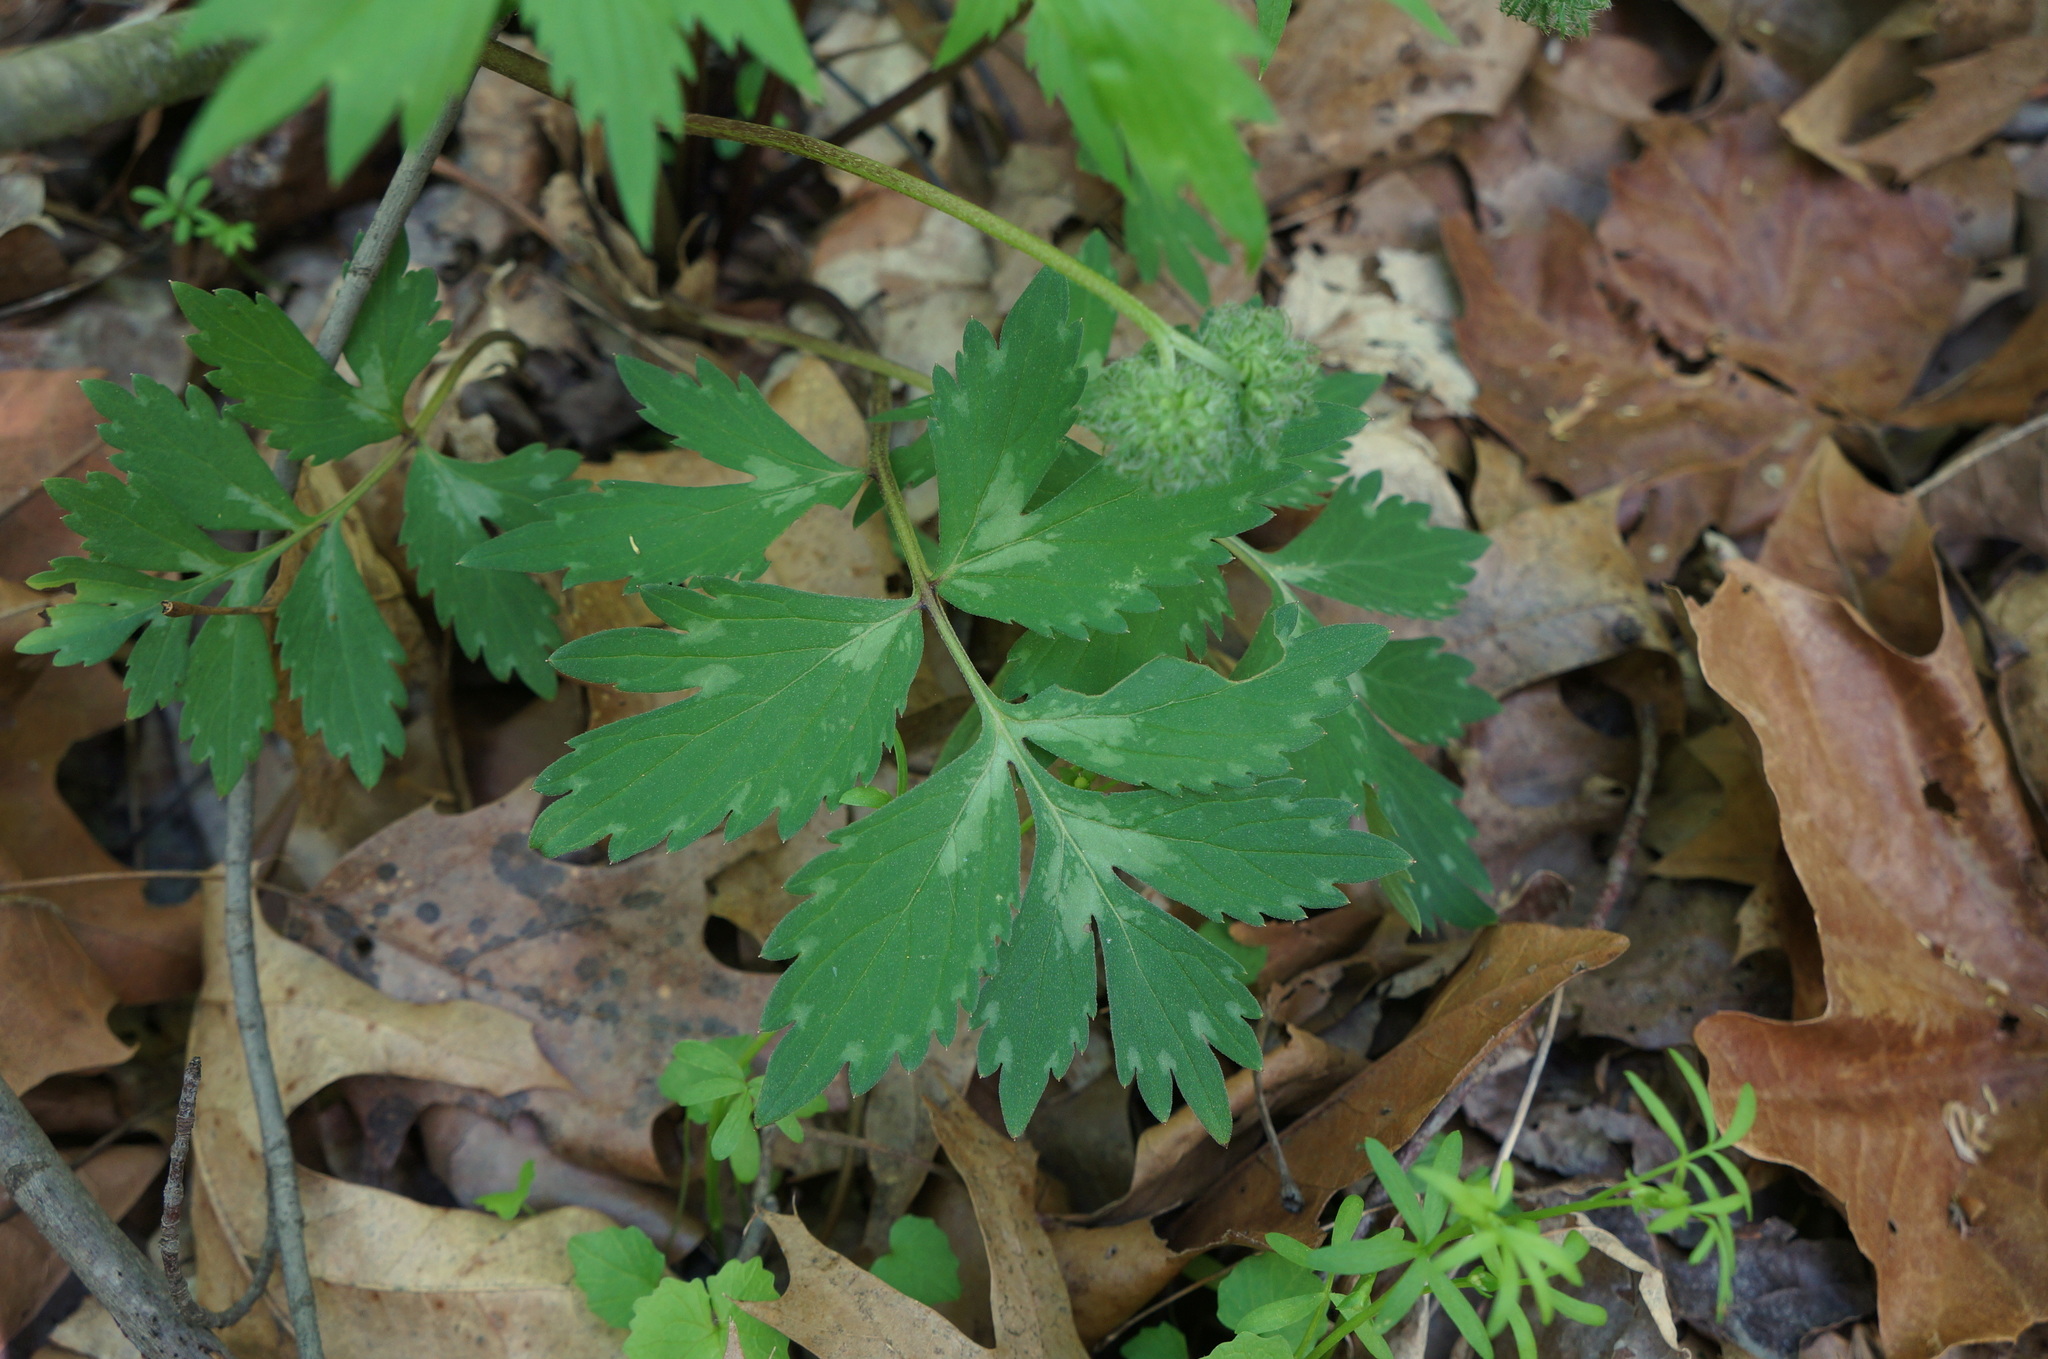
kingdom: Plantae
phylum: Tracheophyta
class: Magnoliopsida
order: Boraginales
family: Hydrophyllaceae
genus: Hydrophyllum
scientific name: Hydrophyllum virginianum
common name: Virginia waterleaf
